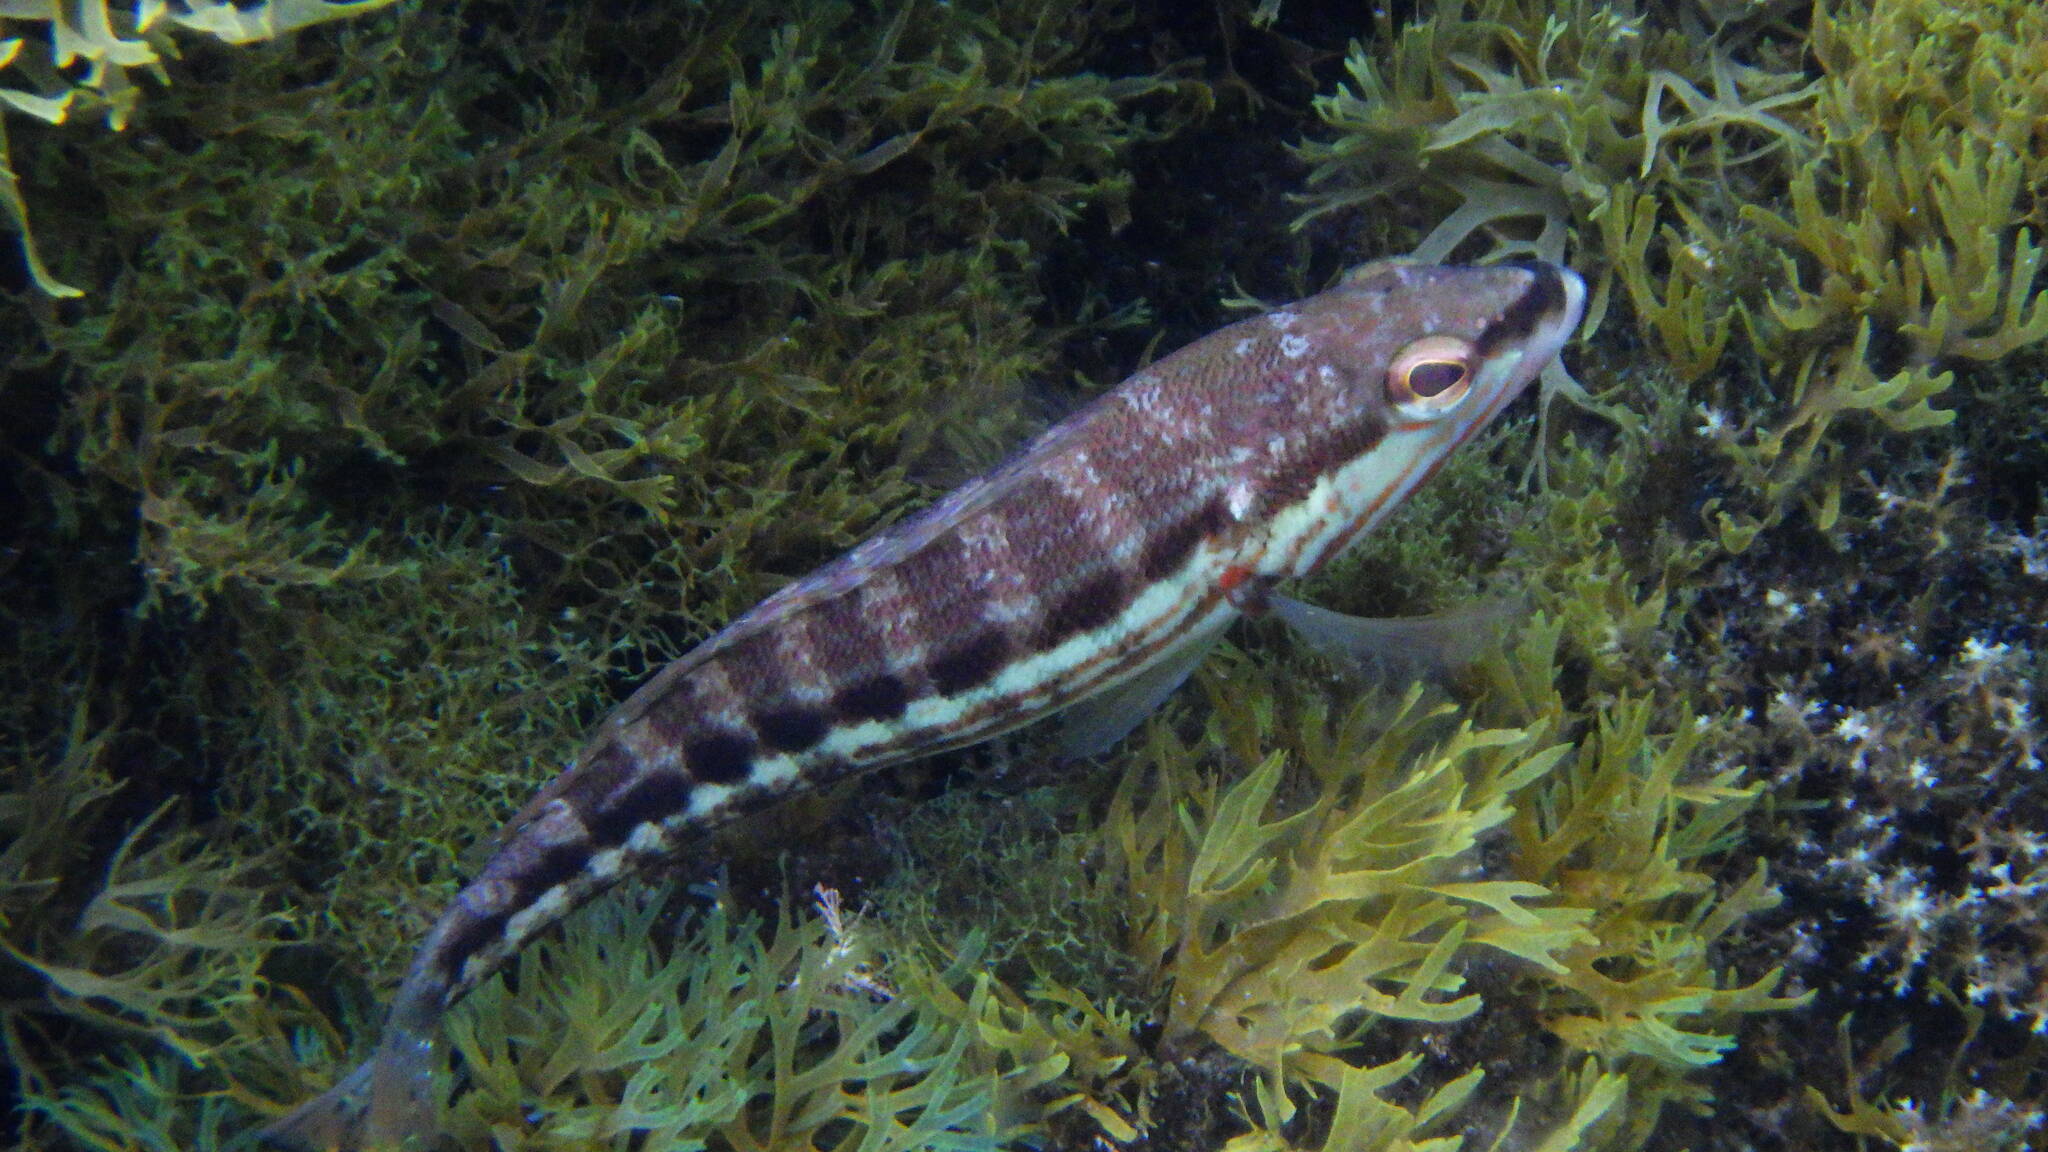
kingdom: Animalia
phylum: Chordata
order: Perciformes
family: Serranidae
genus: Serranus
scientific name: Serranus cabrilla
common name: Comber
